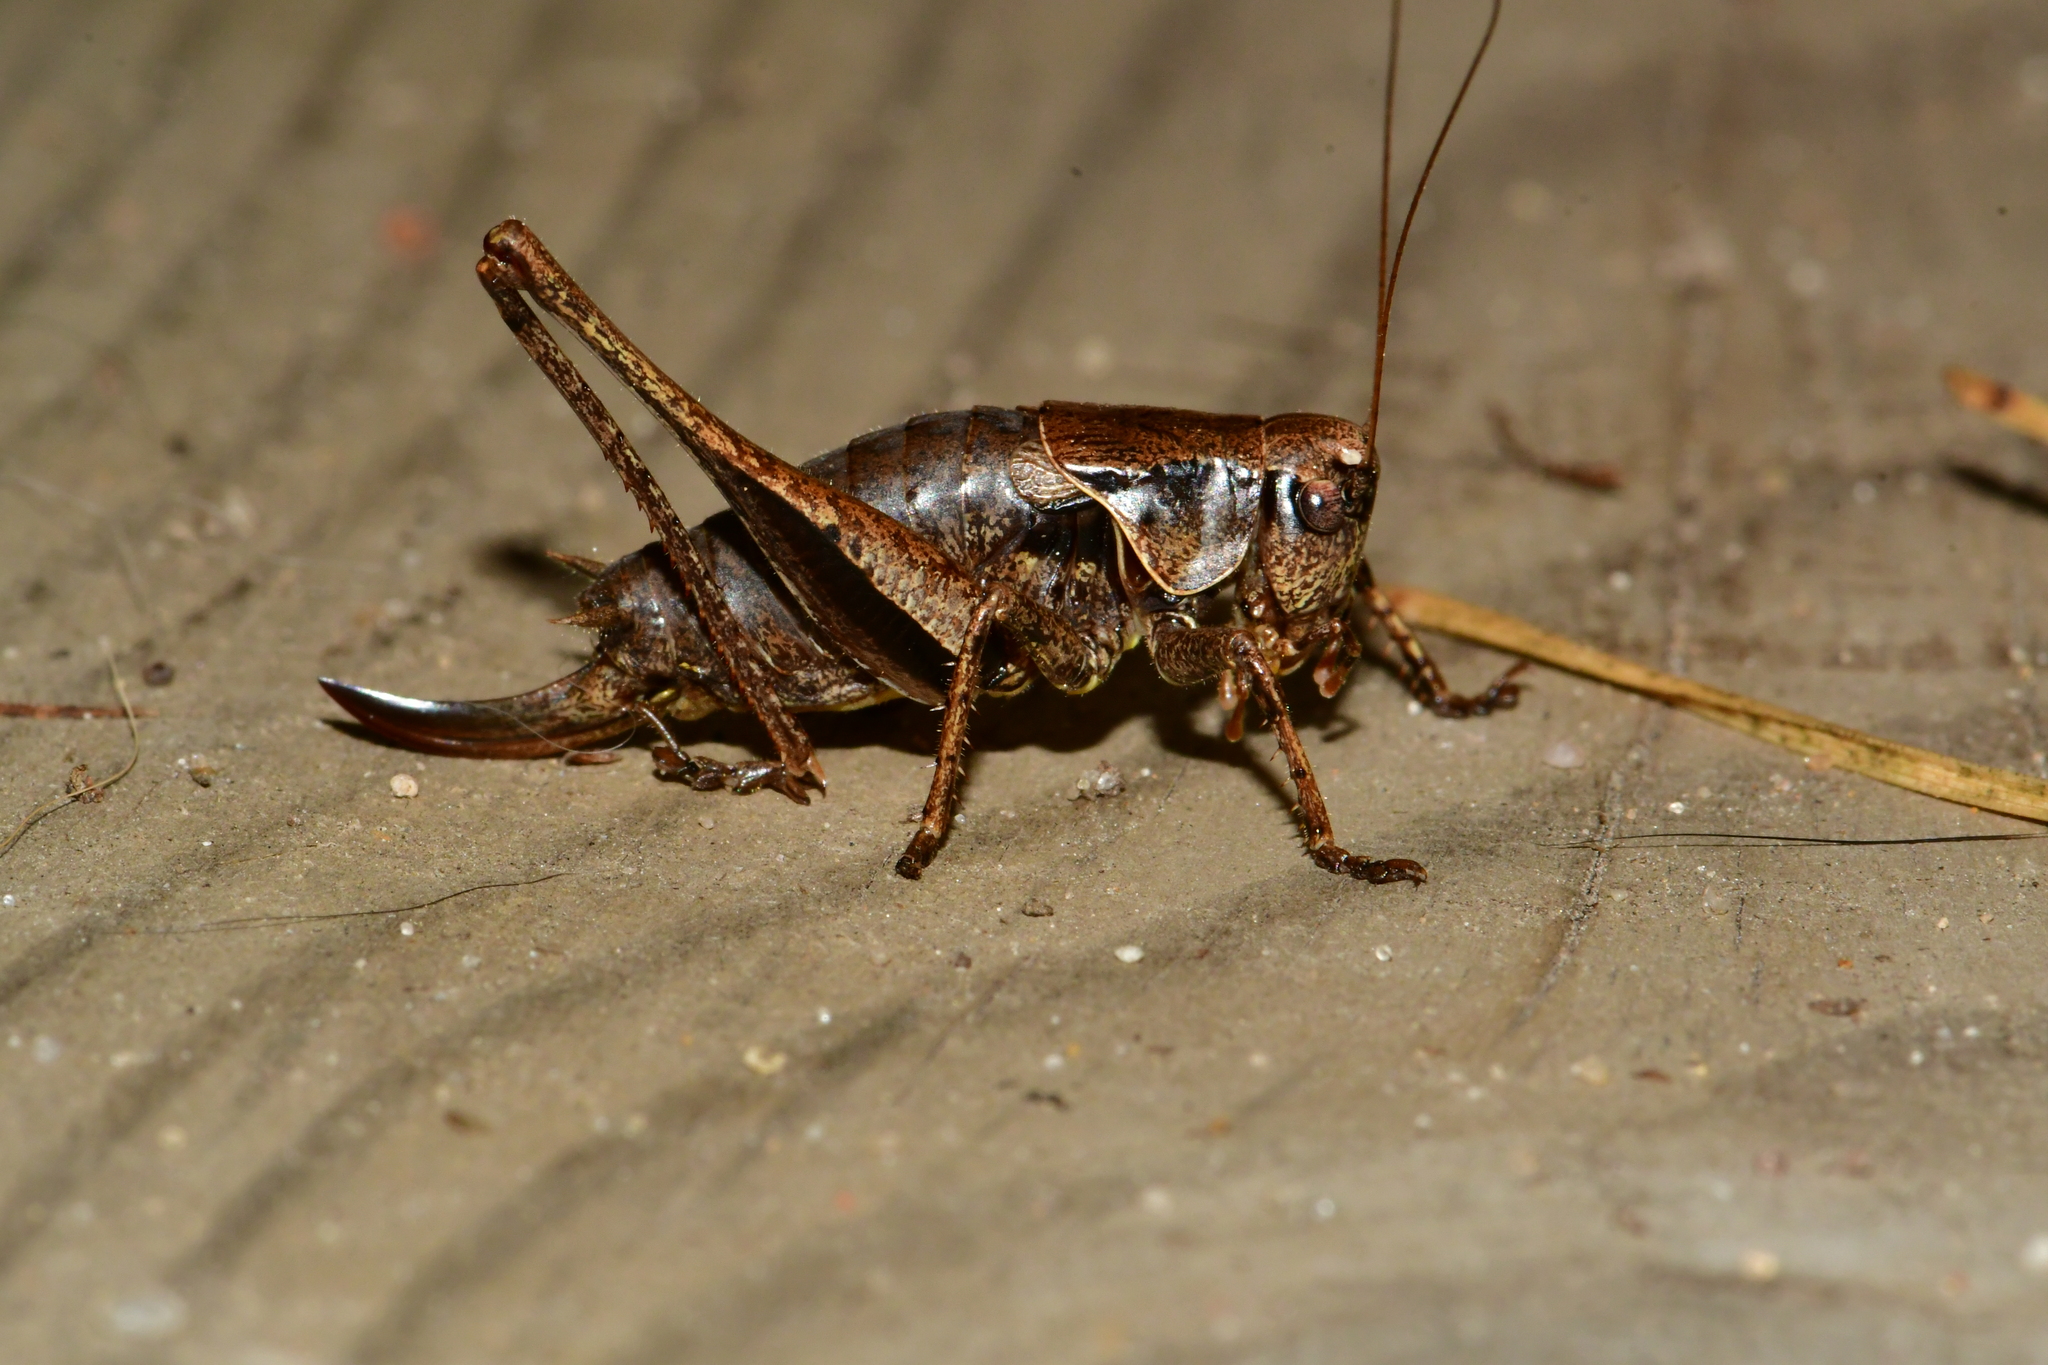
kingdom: Animalia
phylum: Arthropoda
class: Insecta
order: Orthoptera
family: Tettigoniidae
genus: Pholidoptera
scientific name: Pholidoptera griseoaptera
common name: Dark bush-cricket
